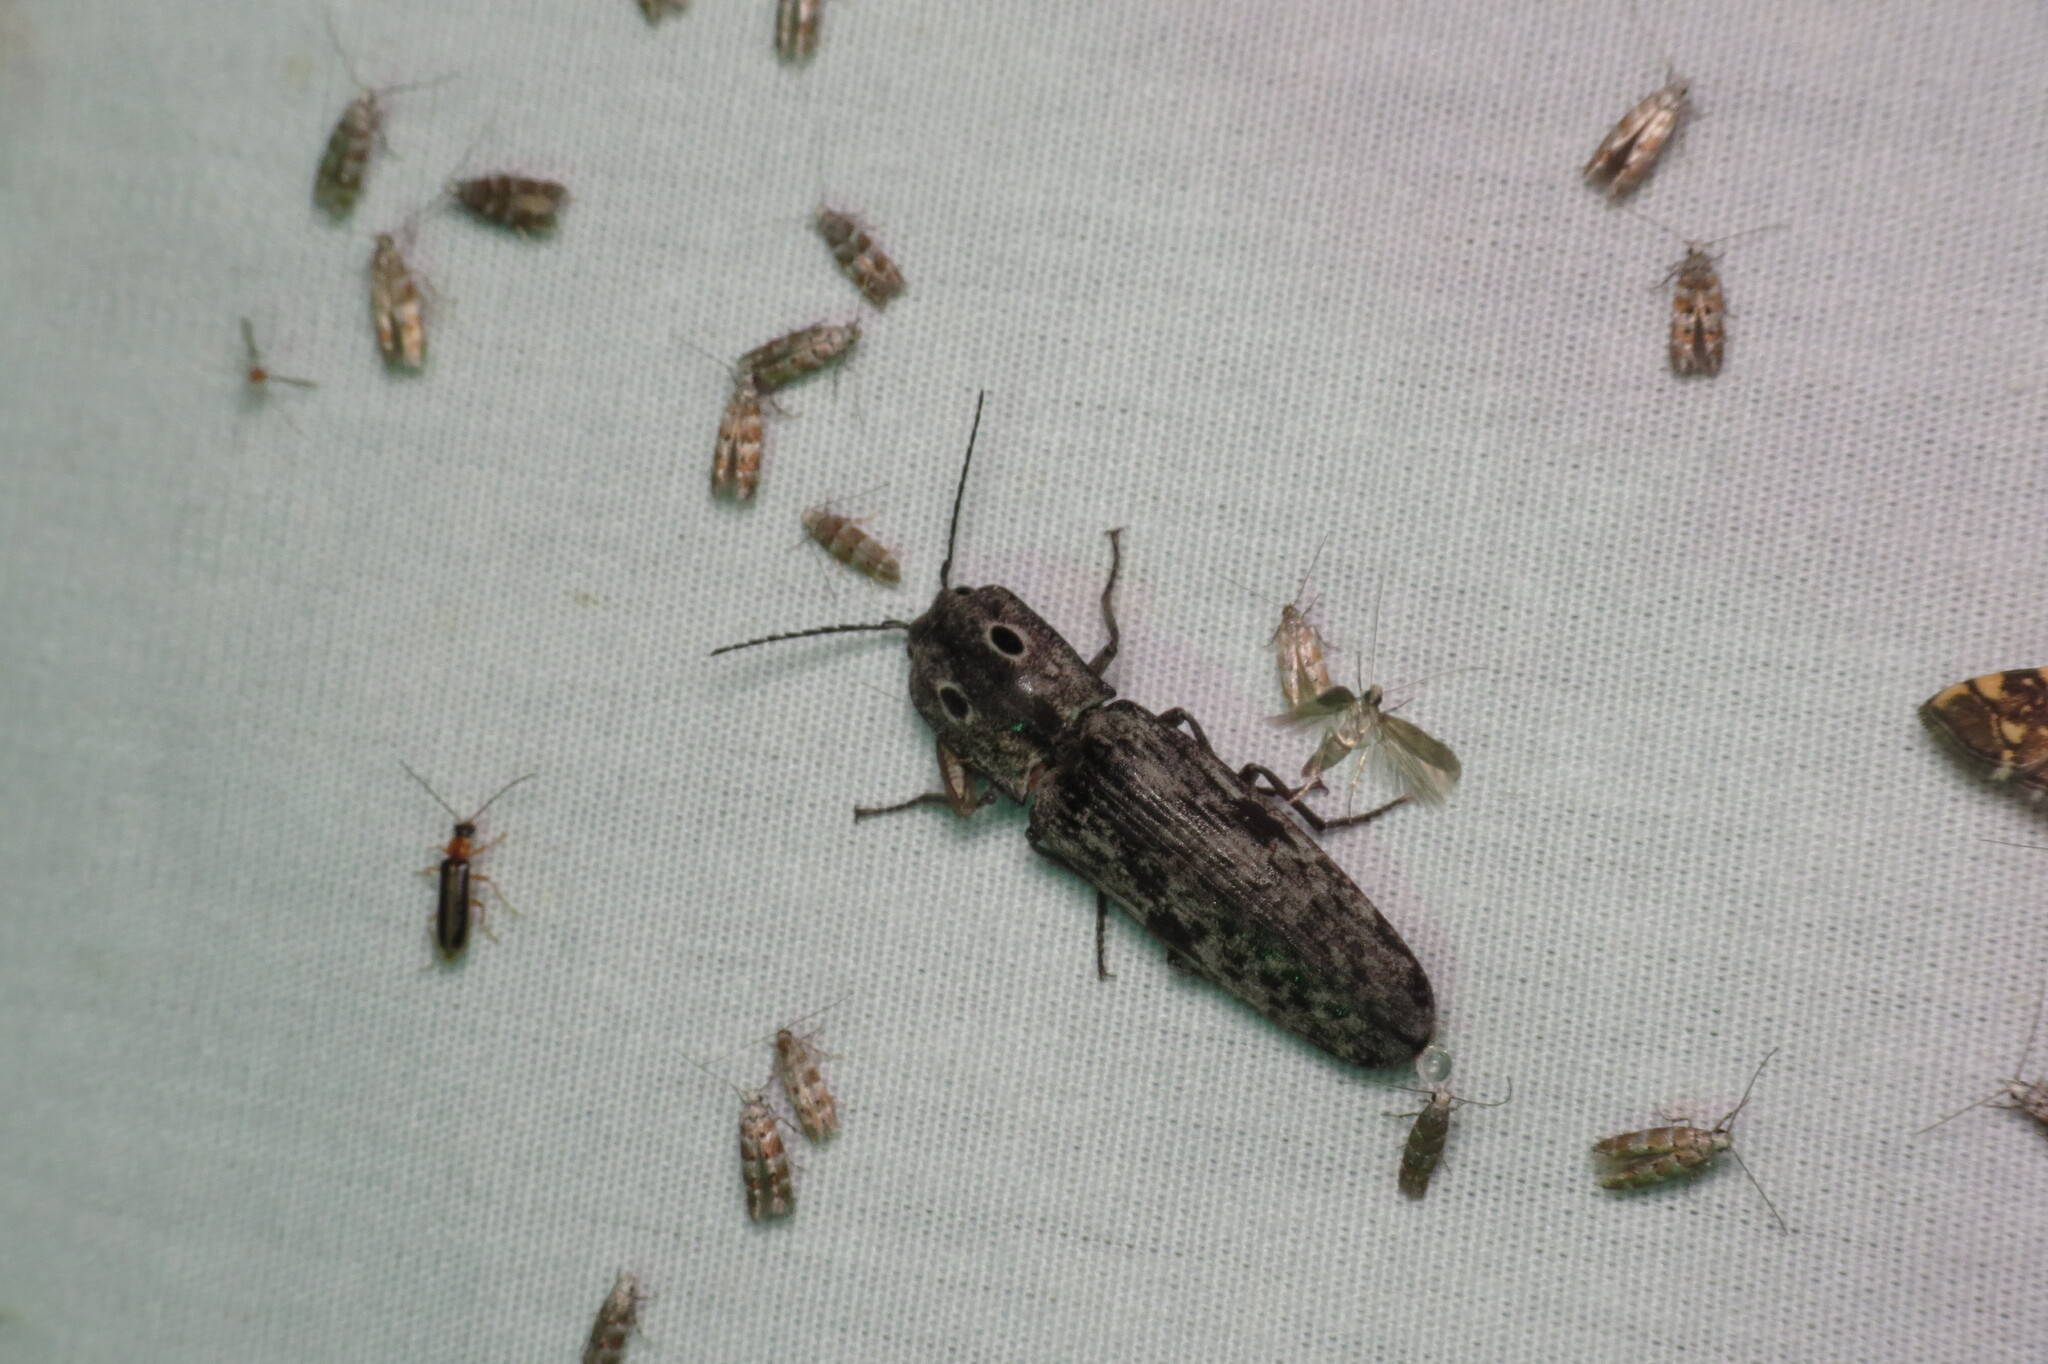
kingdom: Animalia
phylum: Arthropoda
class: Insecta
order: Coleoptera
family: Elateridae
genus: Alaus
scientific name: Alaus myops
